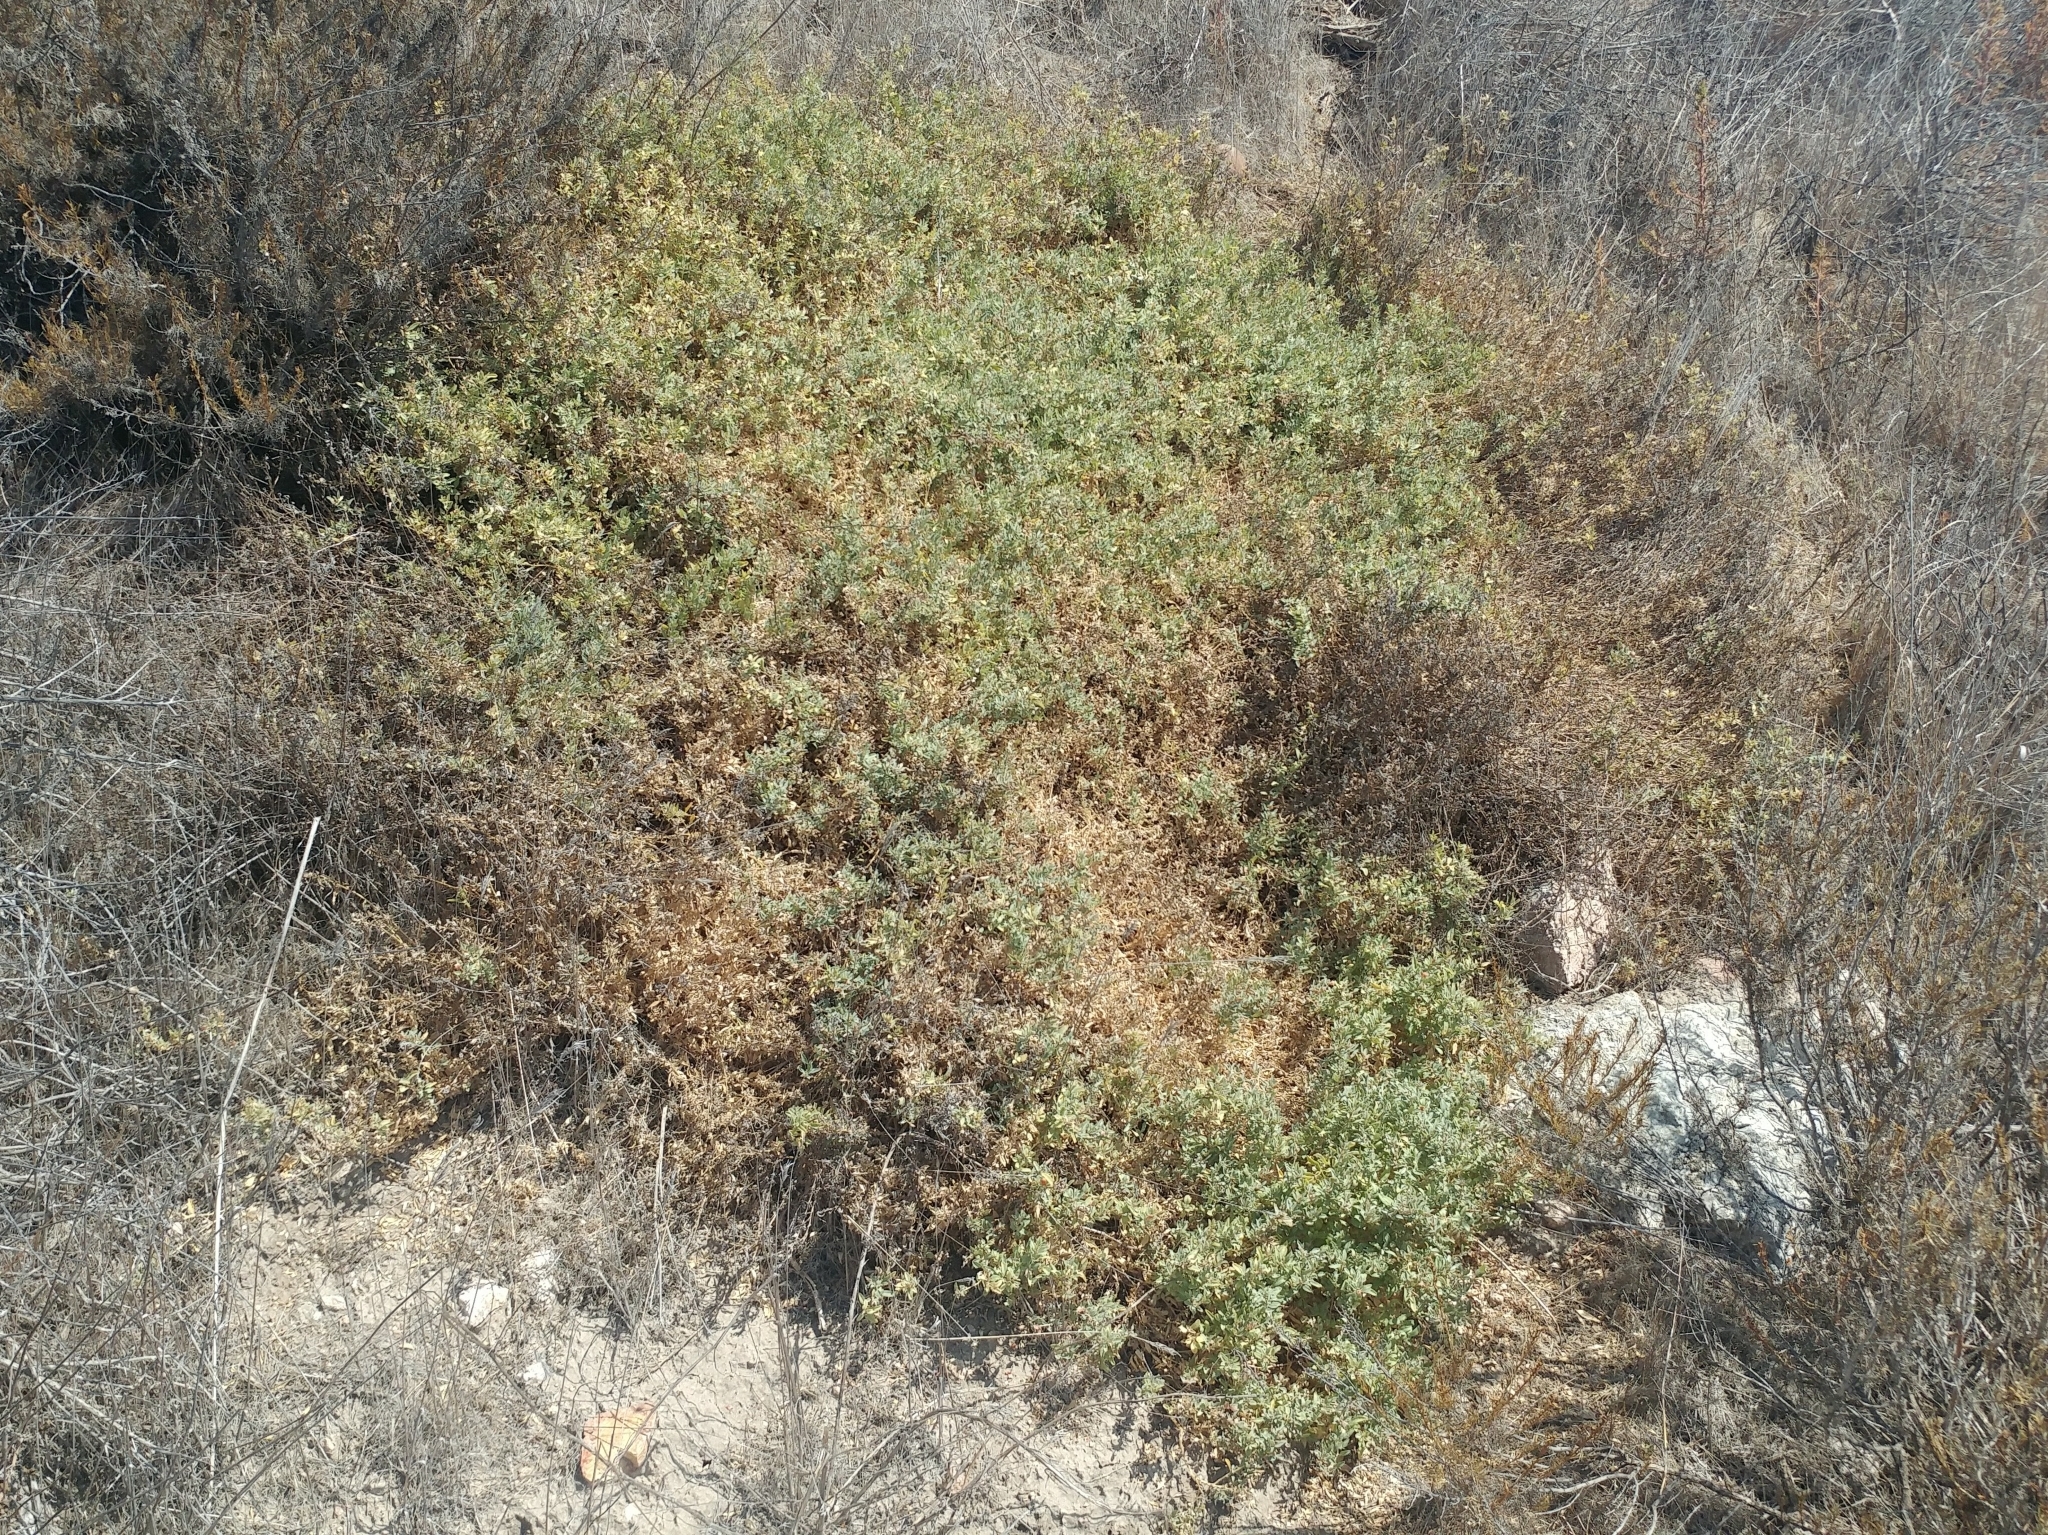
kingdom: Plantae
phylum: Tracheophyta
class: Magnoliopsida
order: Caryophyllales
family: Amaranthaceae
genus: Atriplex
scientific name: Atriplex semibaccata
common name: Australian saltbush
